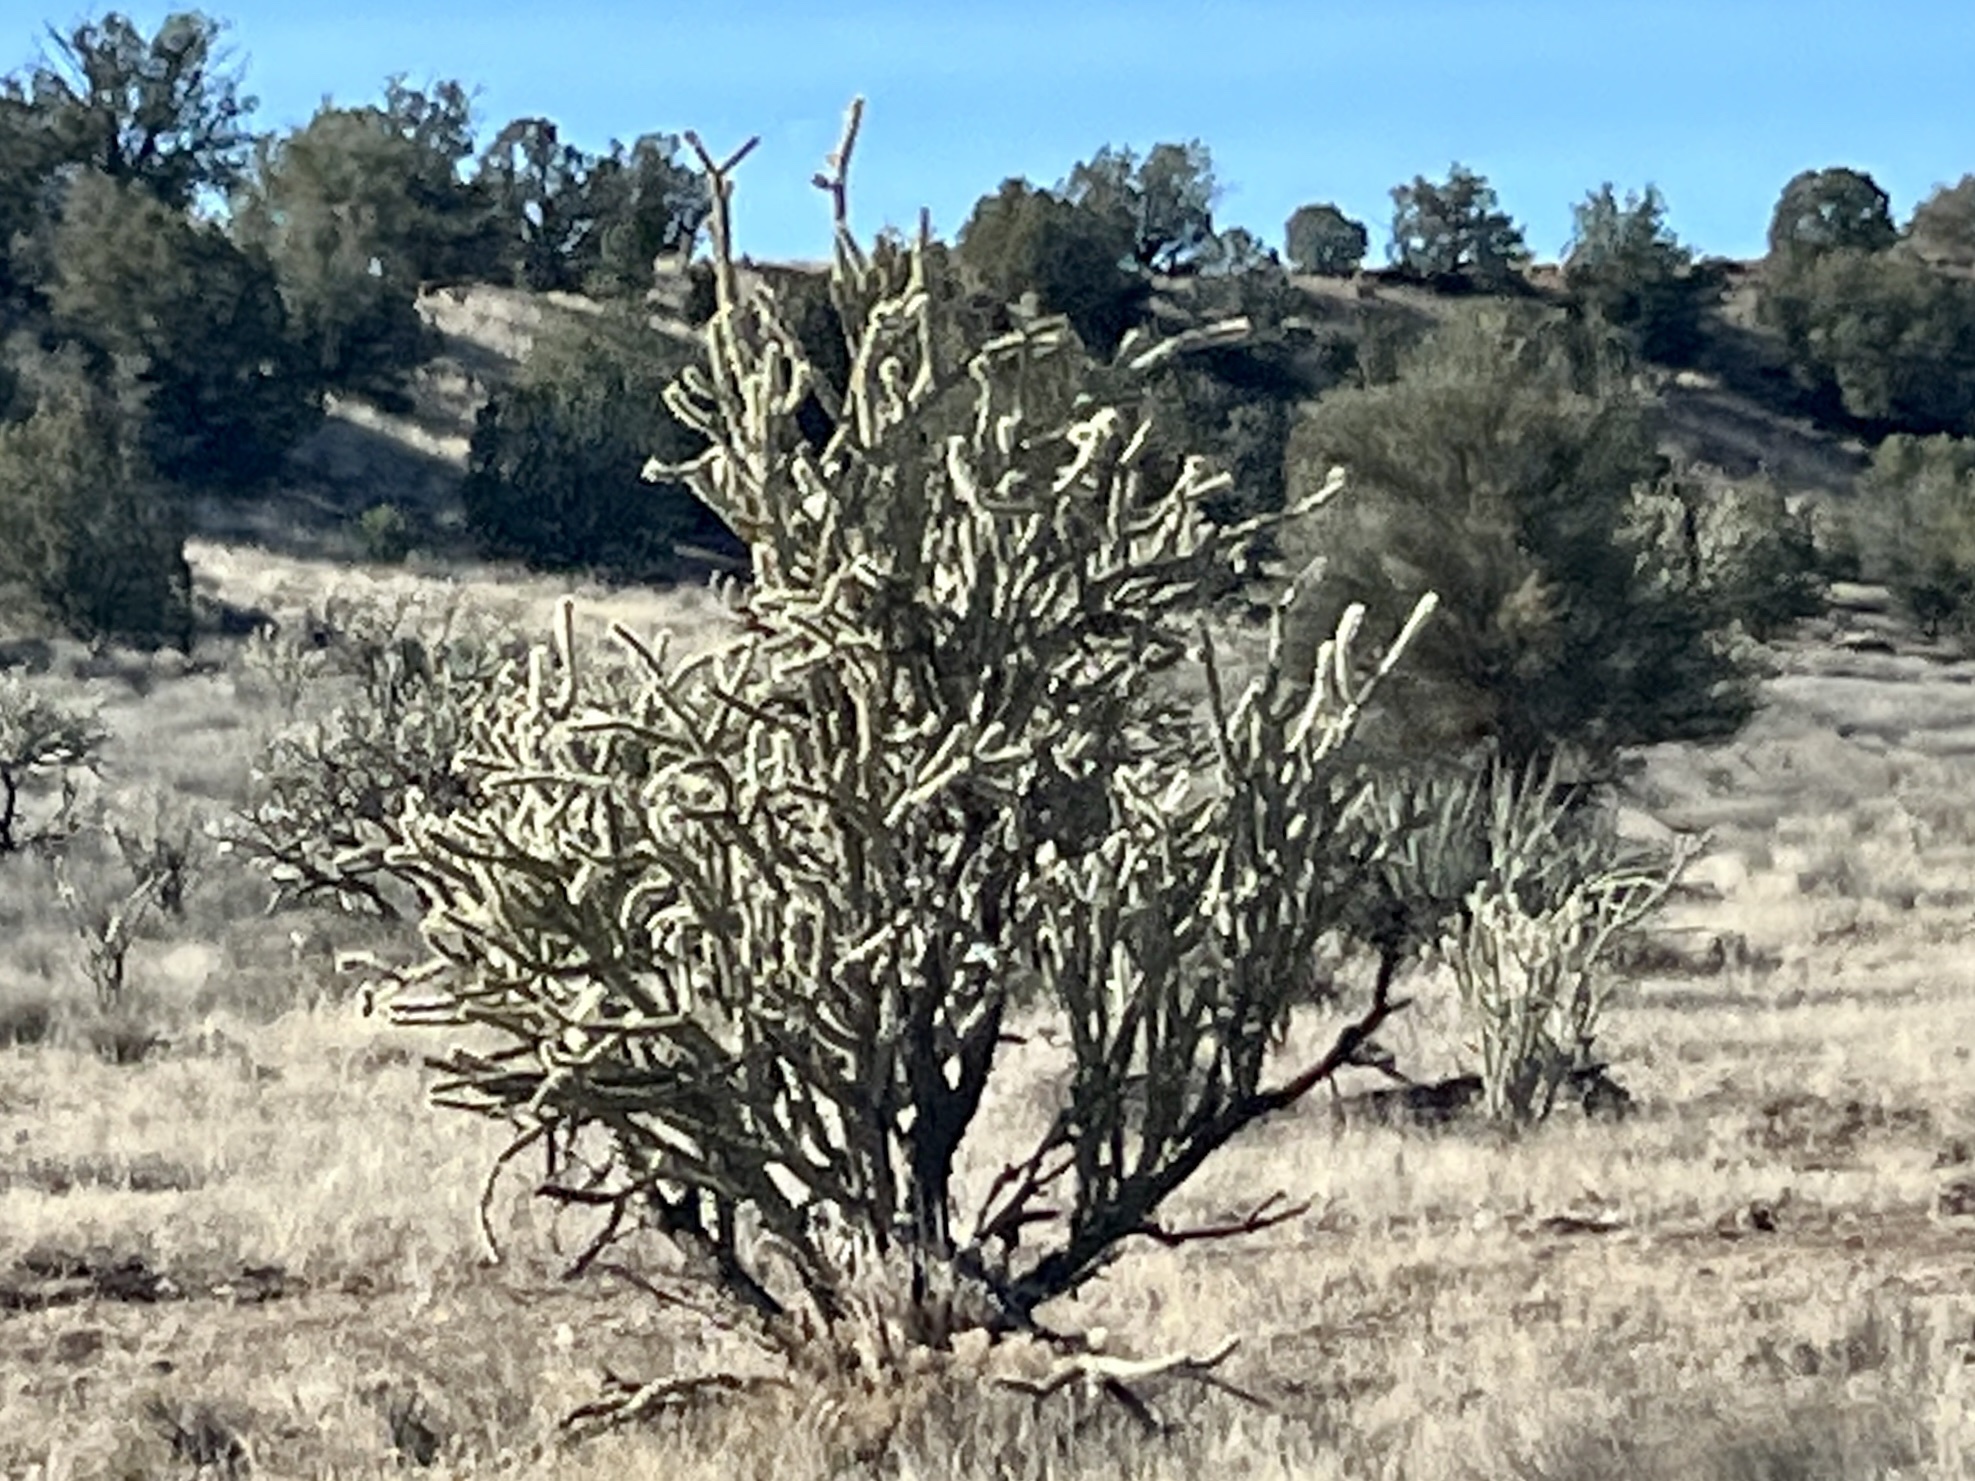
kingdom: Plantae
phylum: Tracheophyta
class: Magnoliopsida
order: Caryophyllales
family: Cactaceae
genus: Cylindropuntia
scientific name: Cylindropuntia acanthocarpa
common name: Buckhorn cholla
